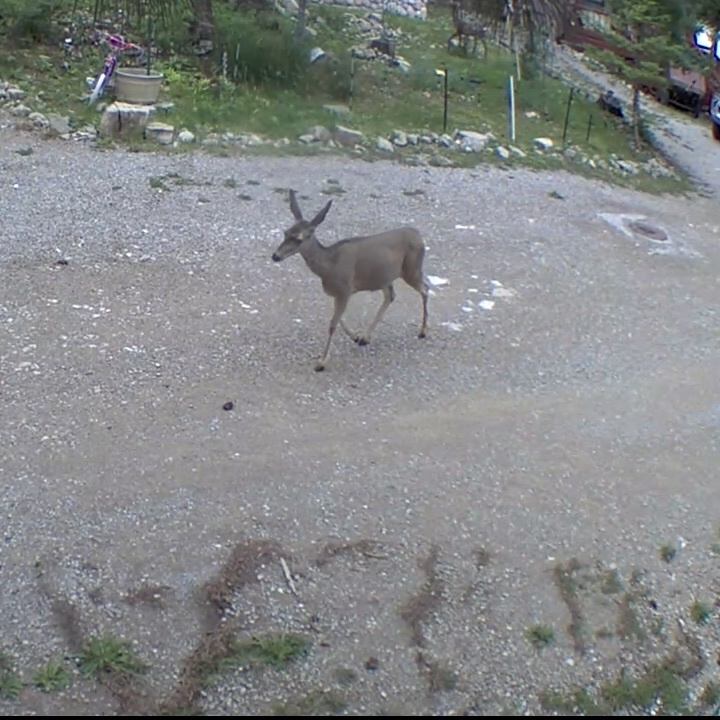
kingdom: Animalia
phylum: Chordata
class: Mammalia
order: Artiodactyla
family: Cervidae
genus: Odocoileus
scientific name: Odocoileus hemionus
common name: Mule deer
